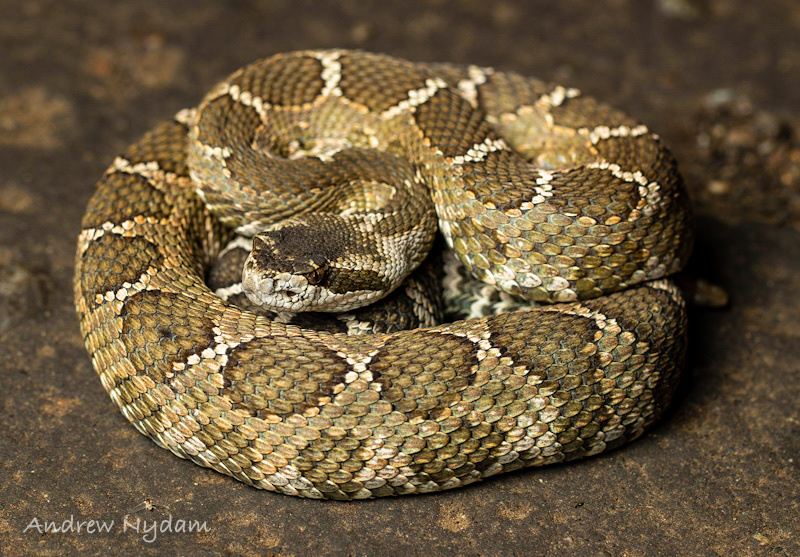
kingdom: Animalia
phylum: Chordata
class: Squamata
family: Viperidae
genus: Crotalus
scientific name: Crotalus oreganus
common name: Abyssus
